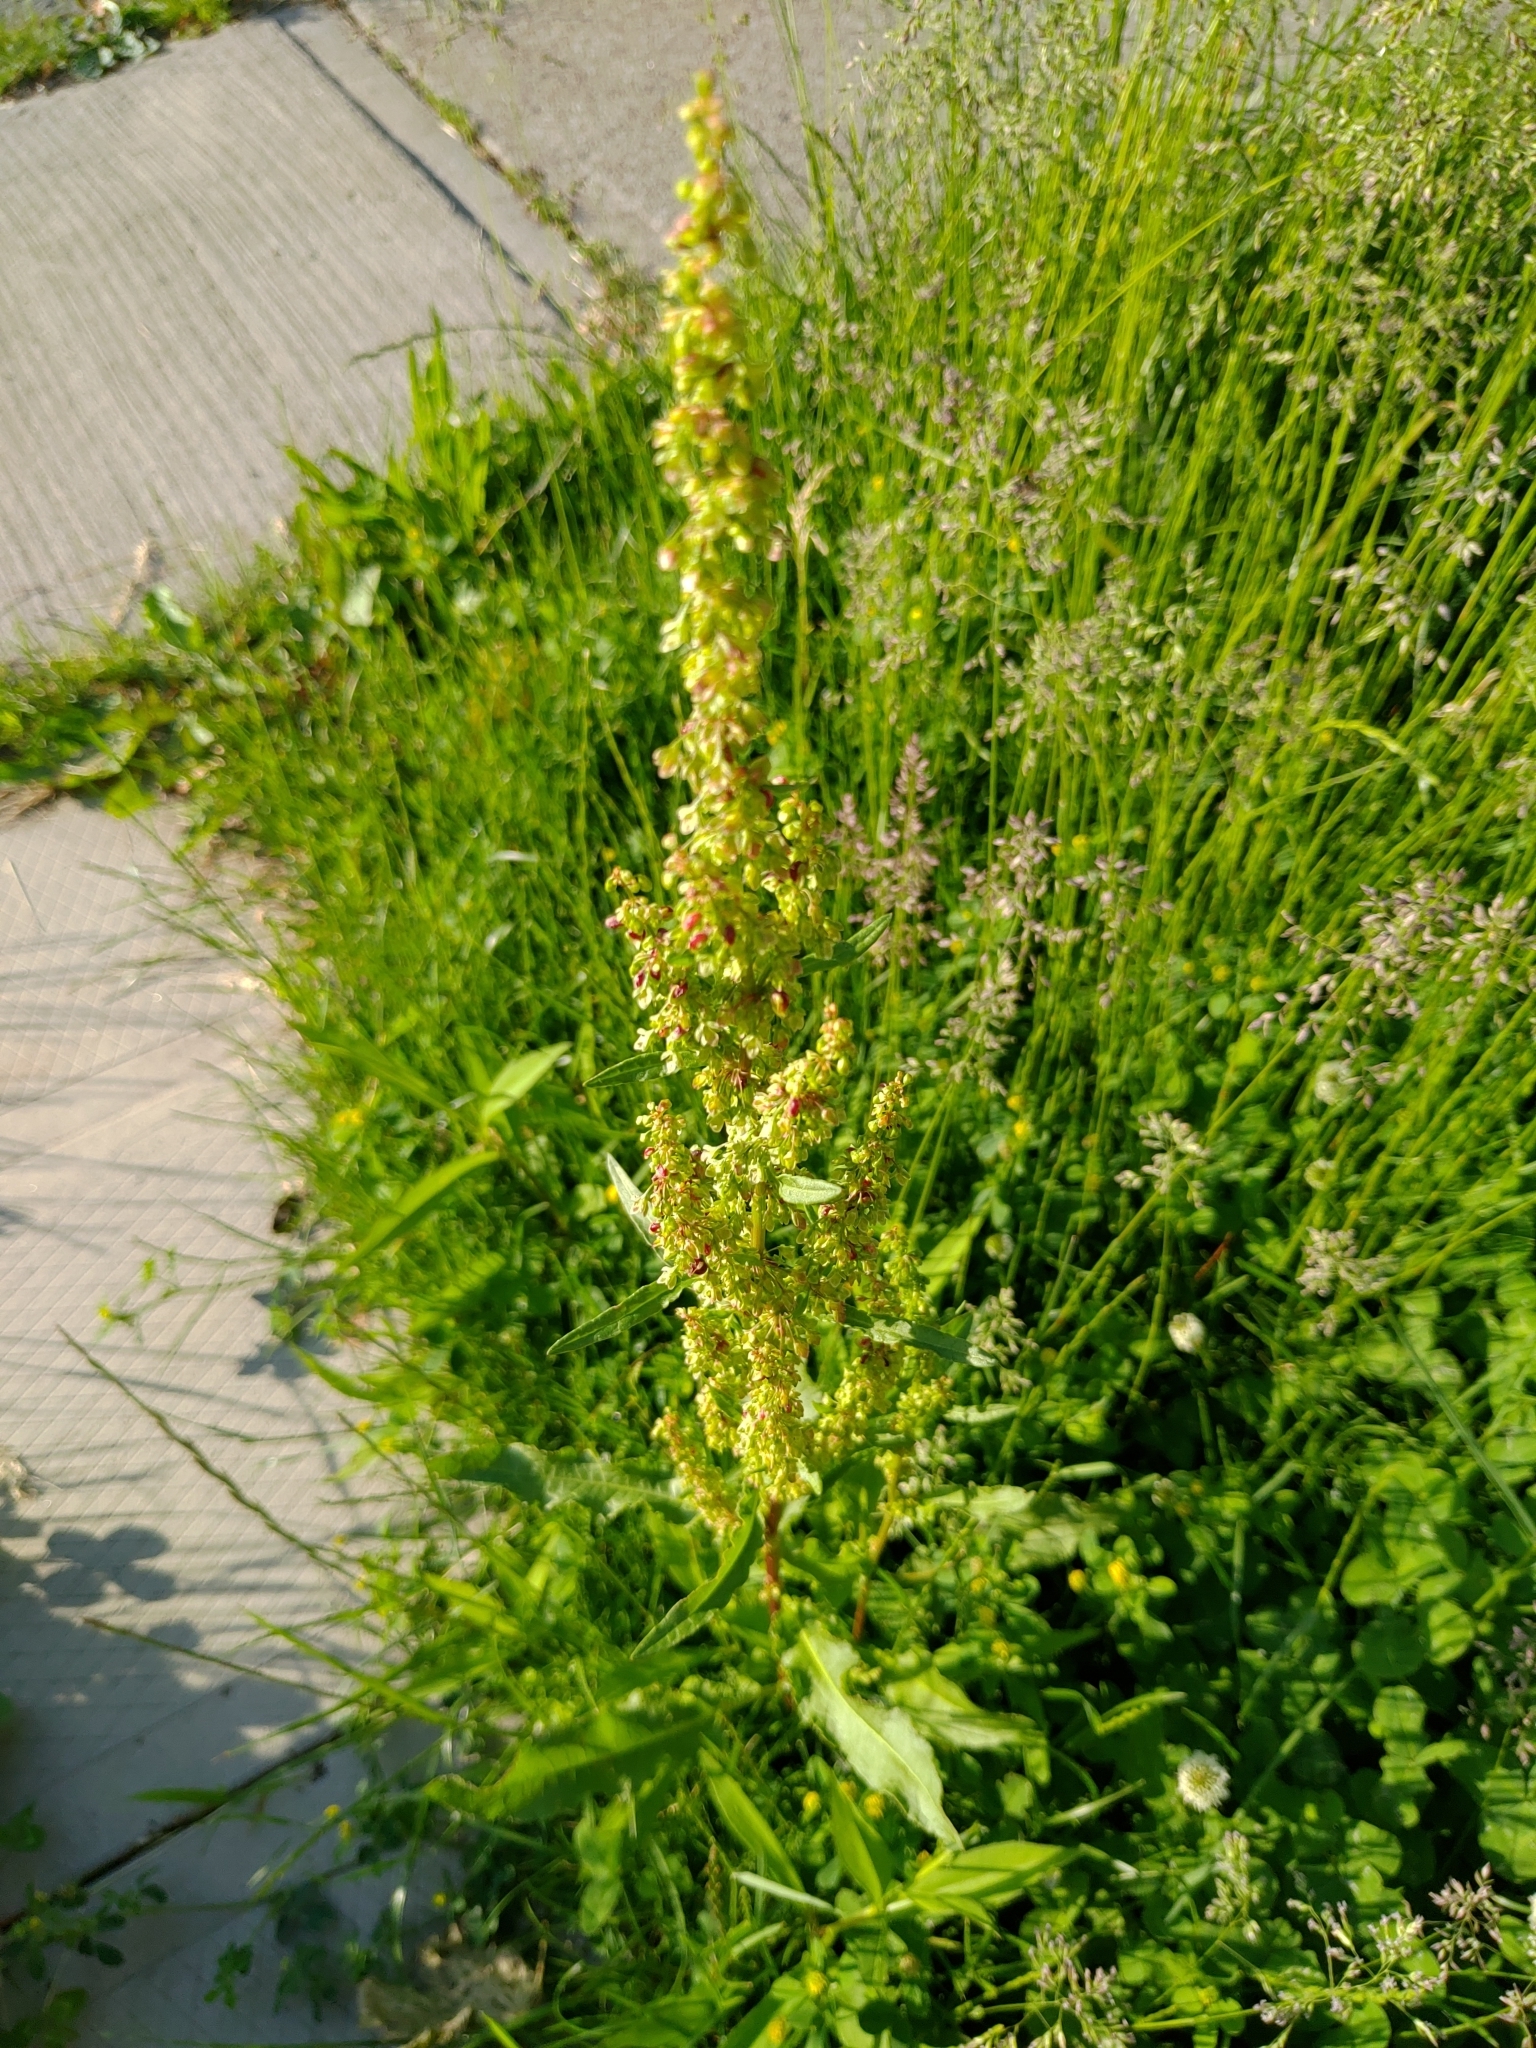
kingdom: Plantae
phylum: Tracheophyta
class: Magnoliopsida
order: Caryophyllales
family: Polygonaceae
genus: Rumex
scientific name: Rumex crispus
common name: Curled dock
